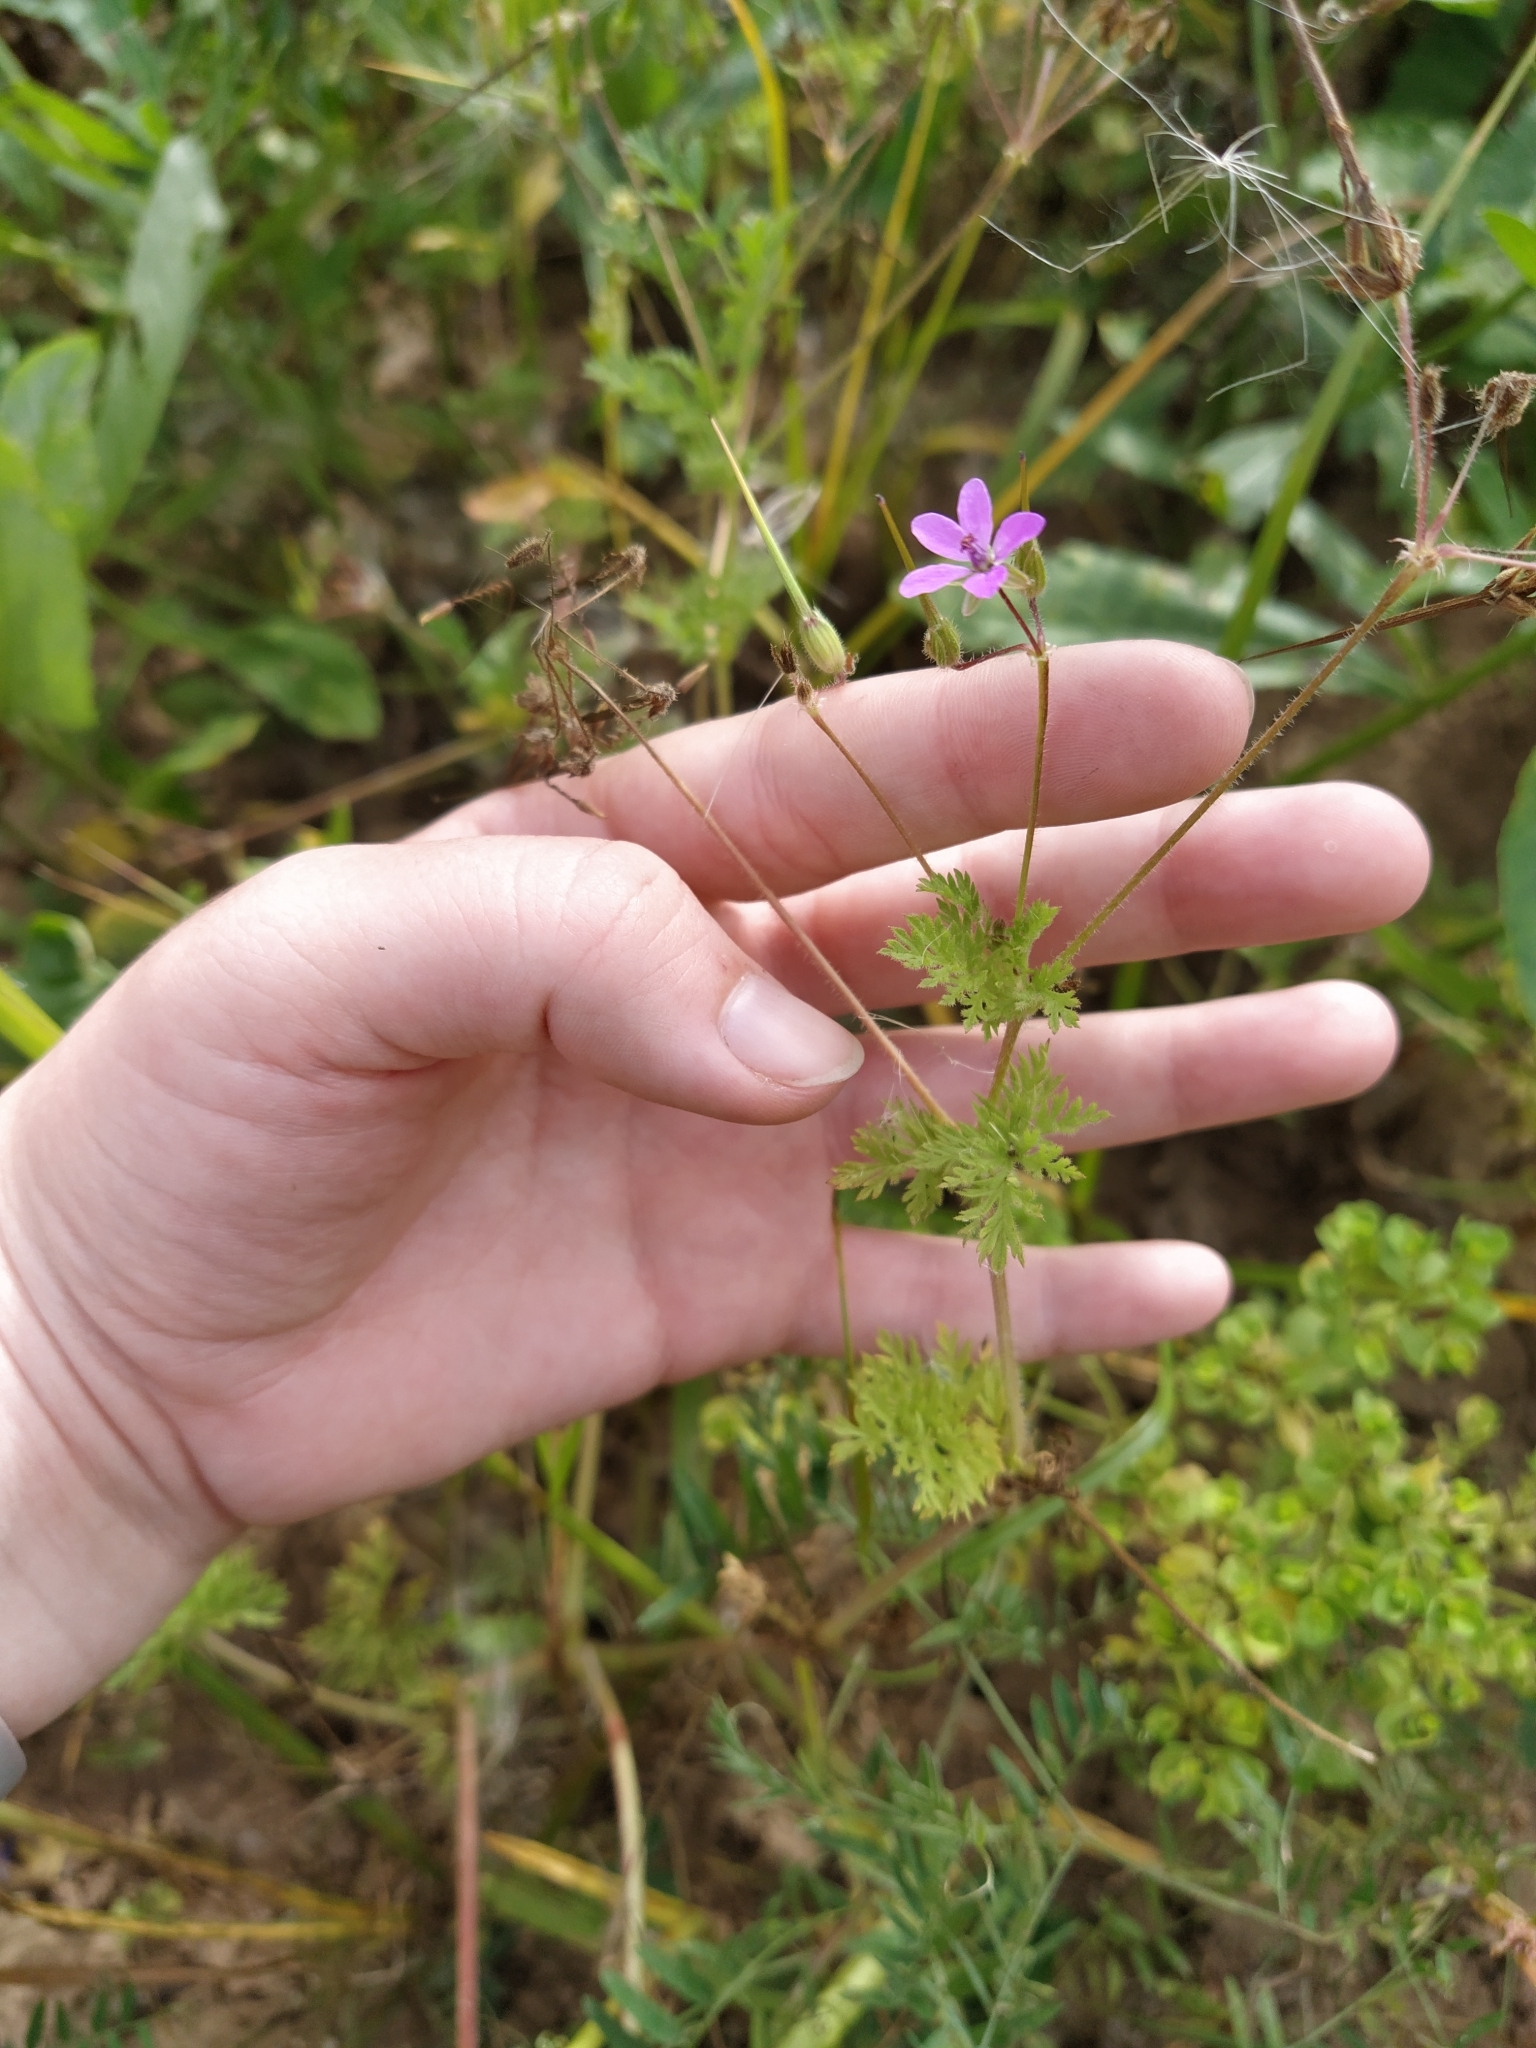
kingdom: Plantae
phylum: Tracheophyta
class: Magnoliopsida
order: Geraniales
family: Geraniaceae
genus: Erodium
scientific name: Erodium cicutarium
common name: Common stork's-bill
